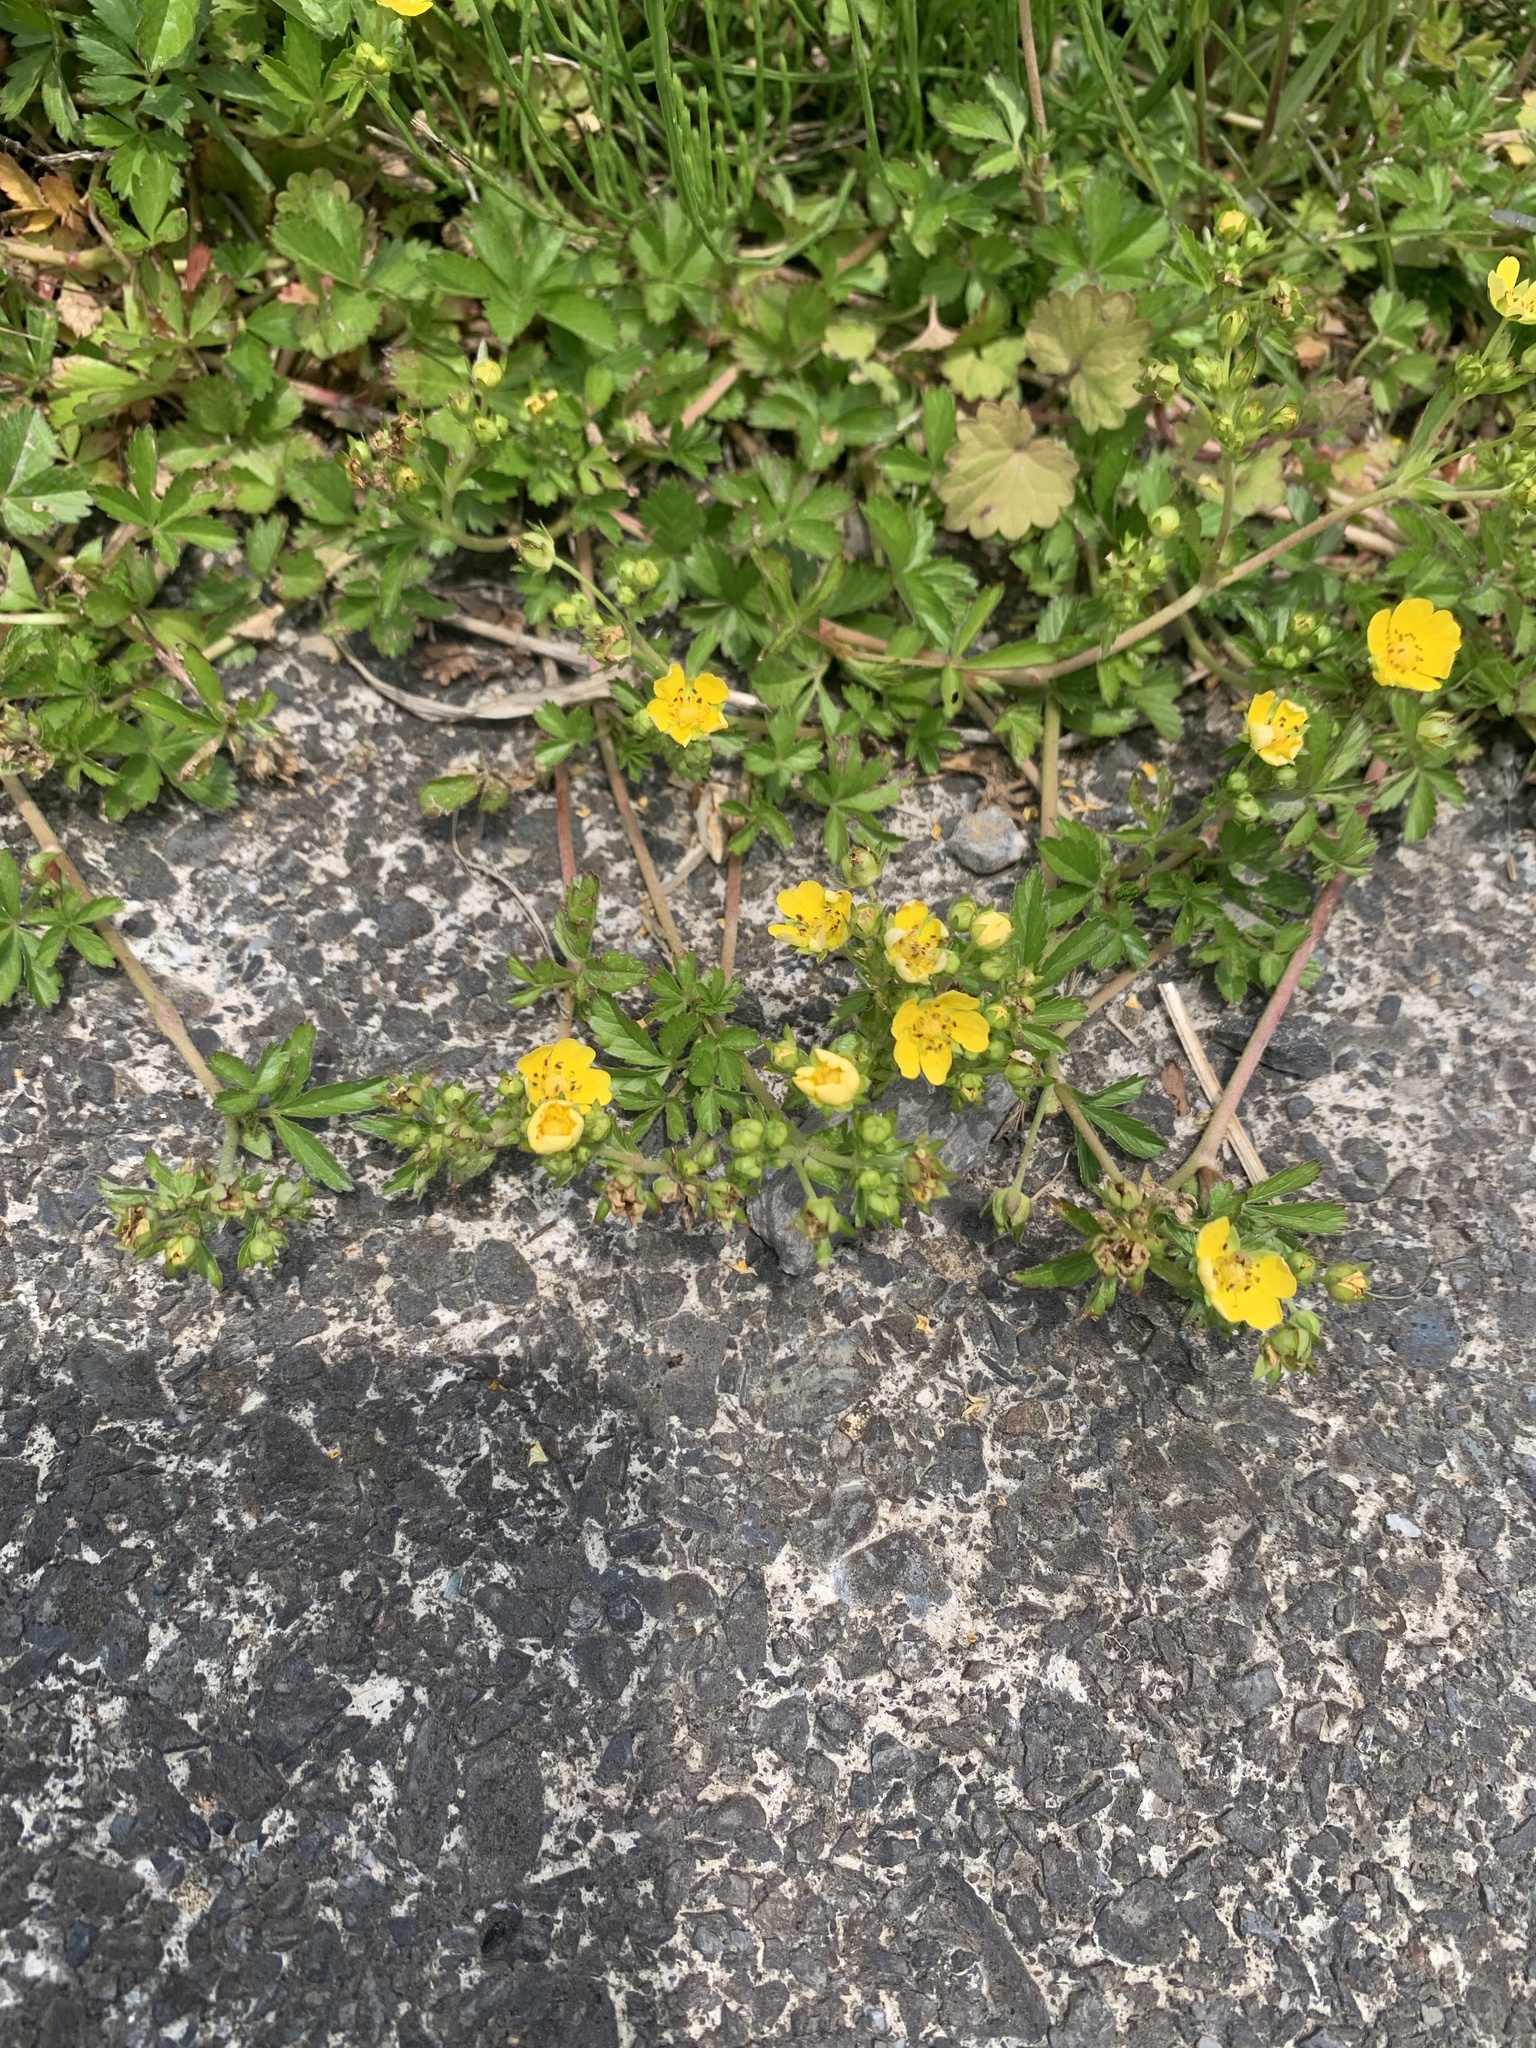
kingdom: Plantae
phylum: Tracheophyta
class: Magnoliopsida
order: Rosales
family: Rosaceae
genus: Potentilla
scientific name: Potentilla sundaica
